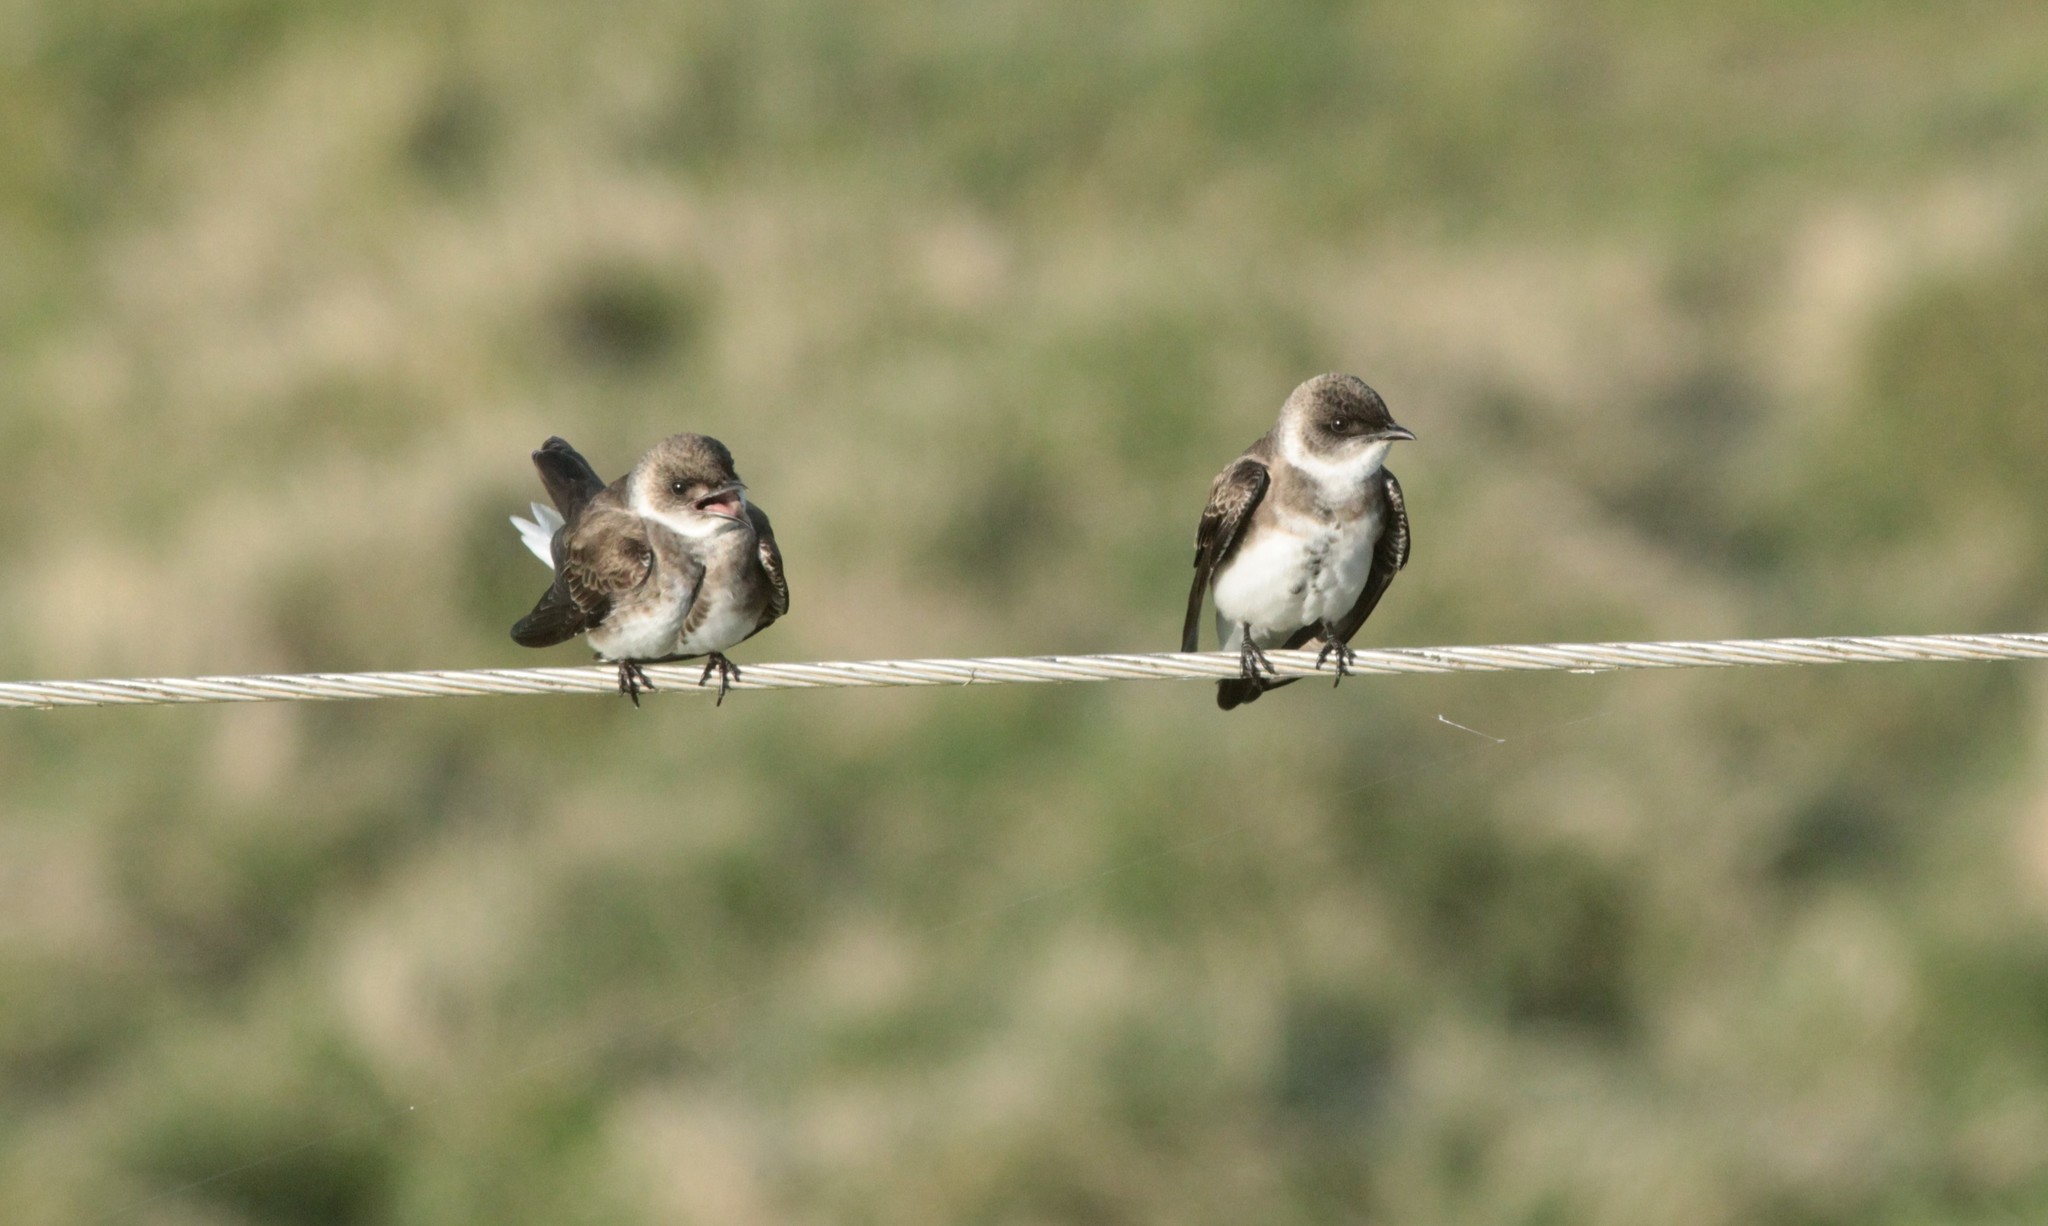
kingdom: Animalia
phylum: Chordata
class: Aves
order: Passeriformes
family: Hirundinidae
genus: Progne
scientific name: Progne tapera
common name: Brown-chested martin
